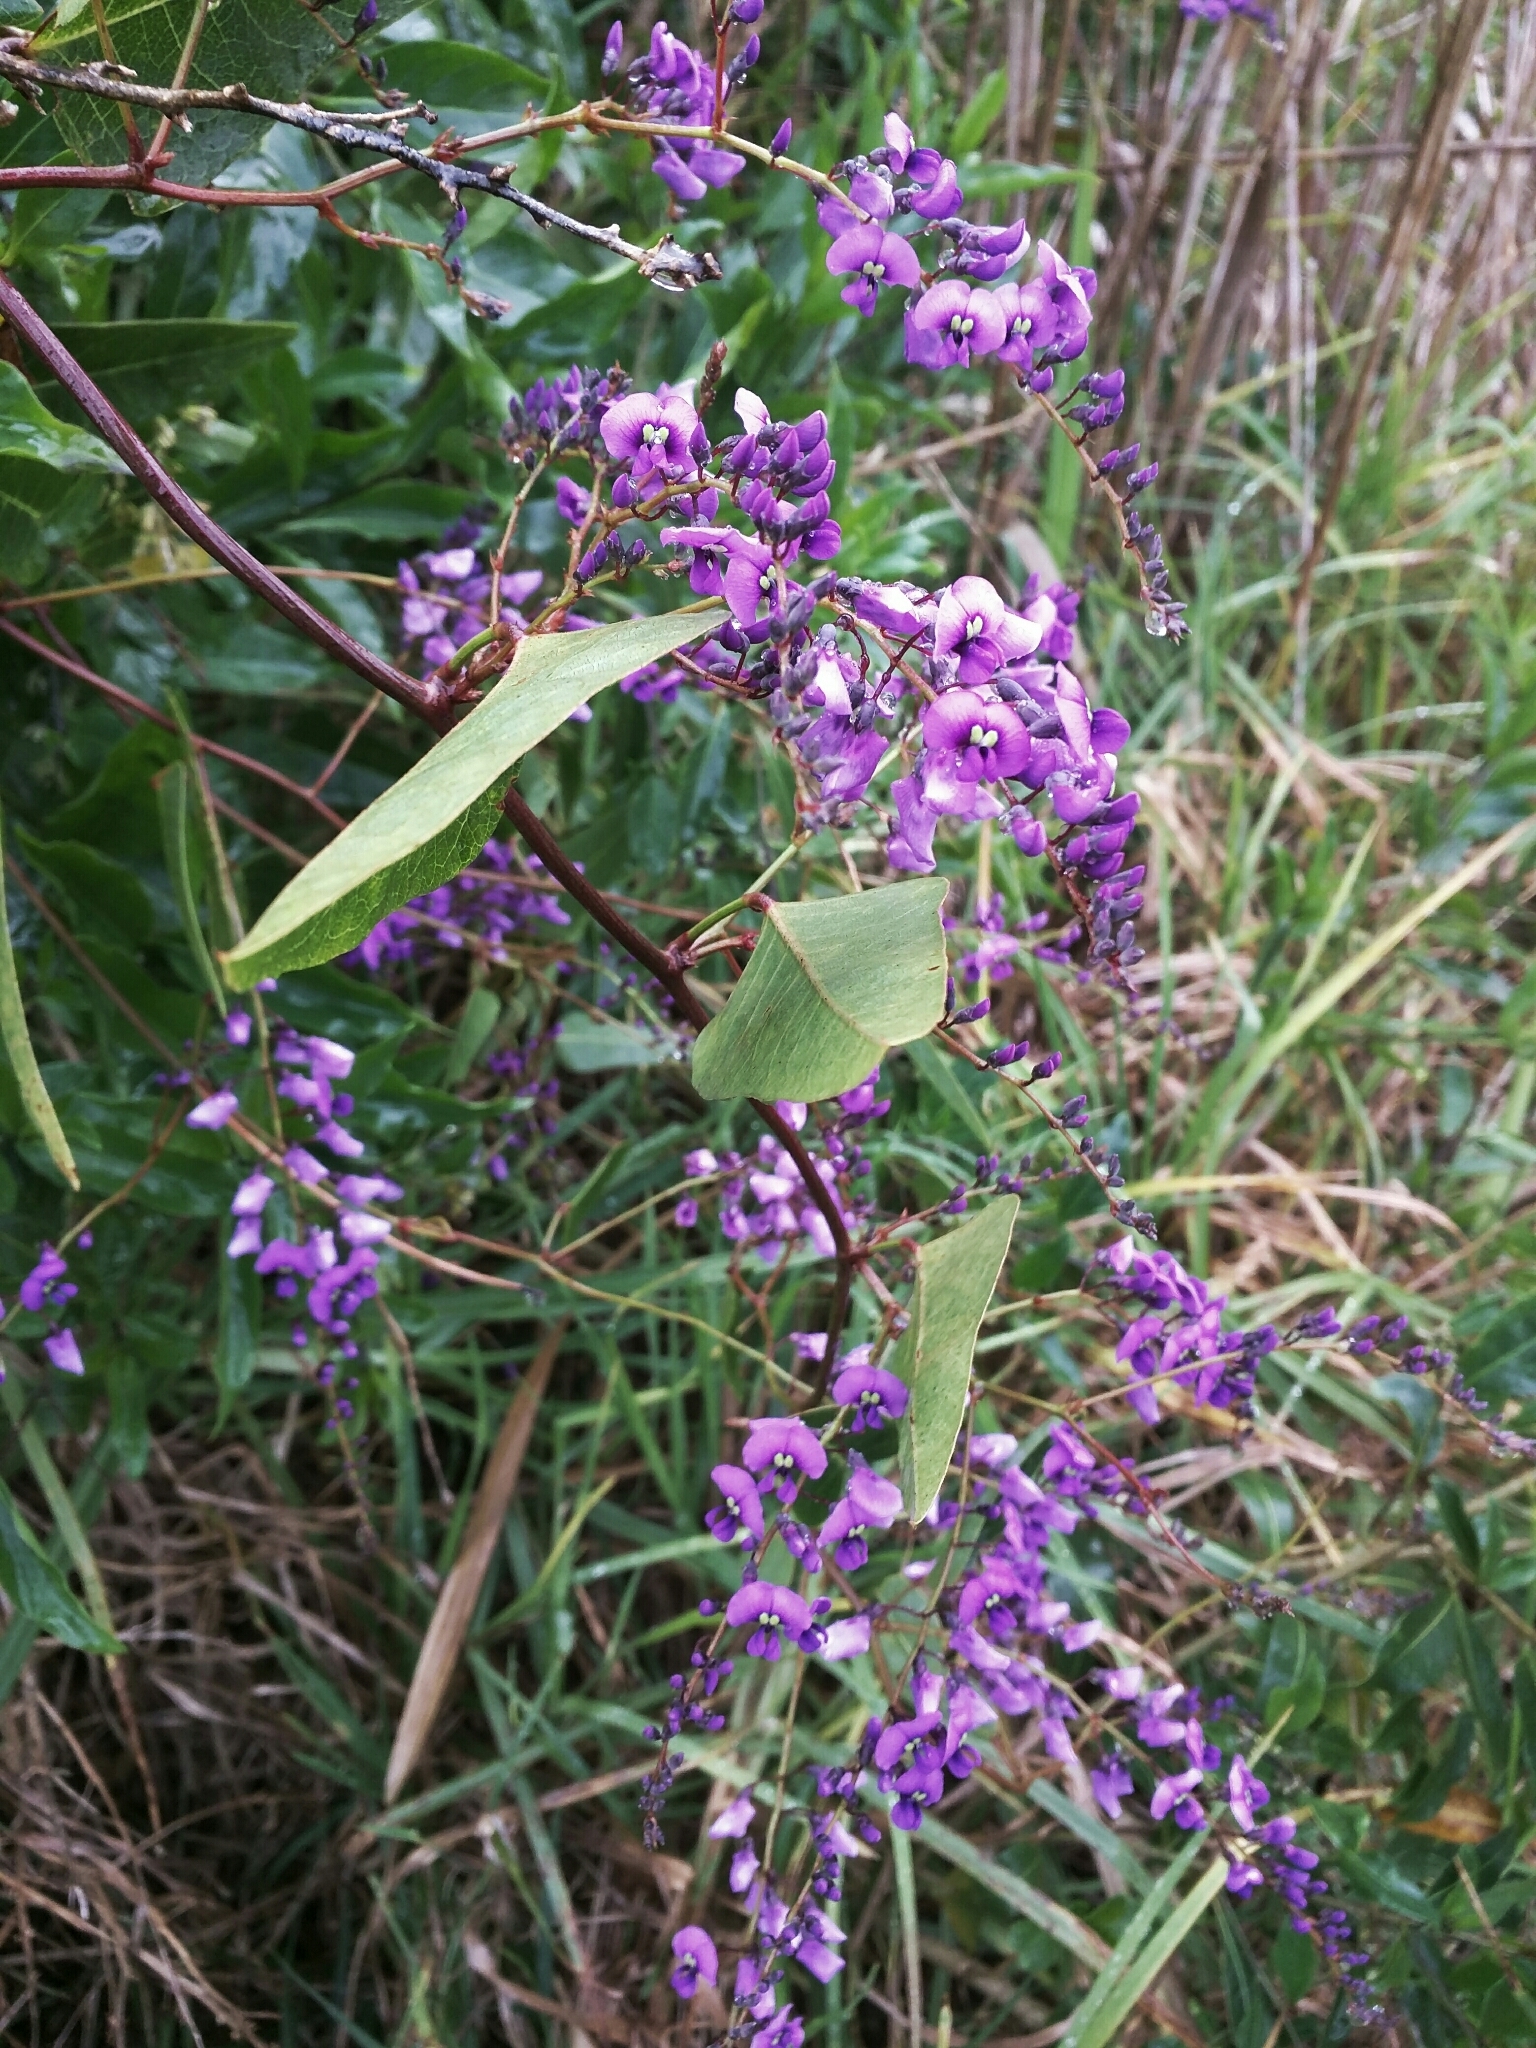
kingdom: Plantae
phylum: Tracheophyta
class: Magnoliopsida
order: Fabales
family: Fabaceae
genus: Hardenbergia
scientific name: Hardenbergia violacea
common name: Coral-pea
